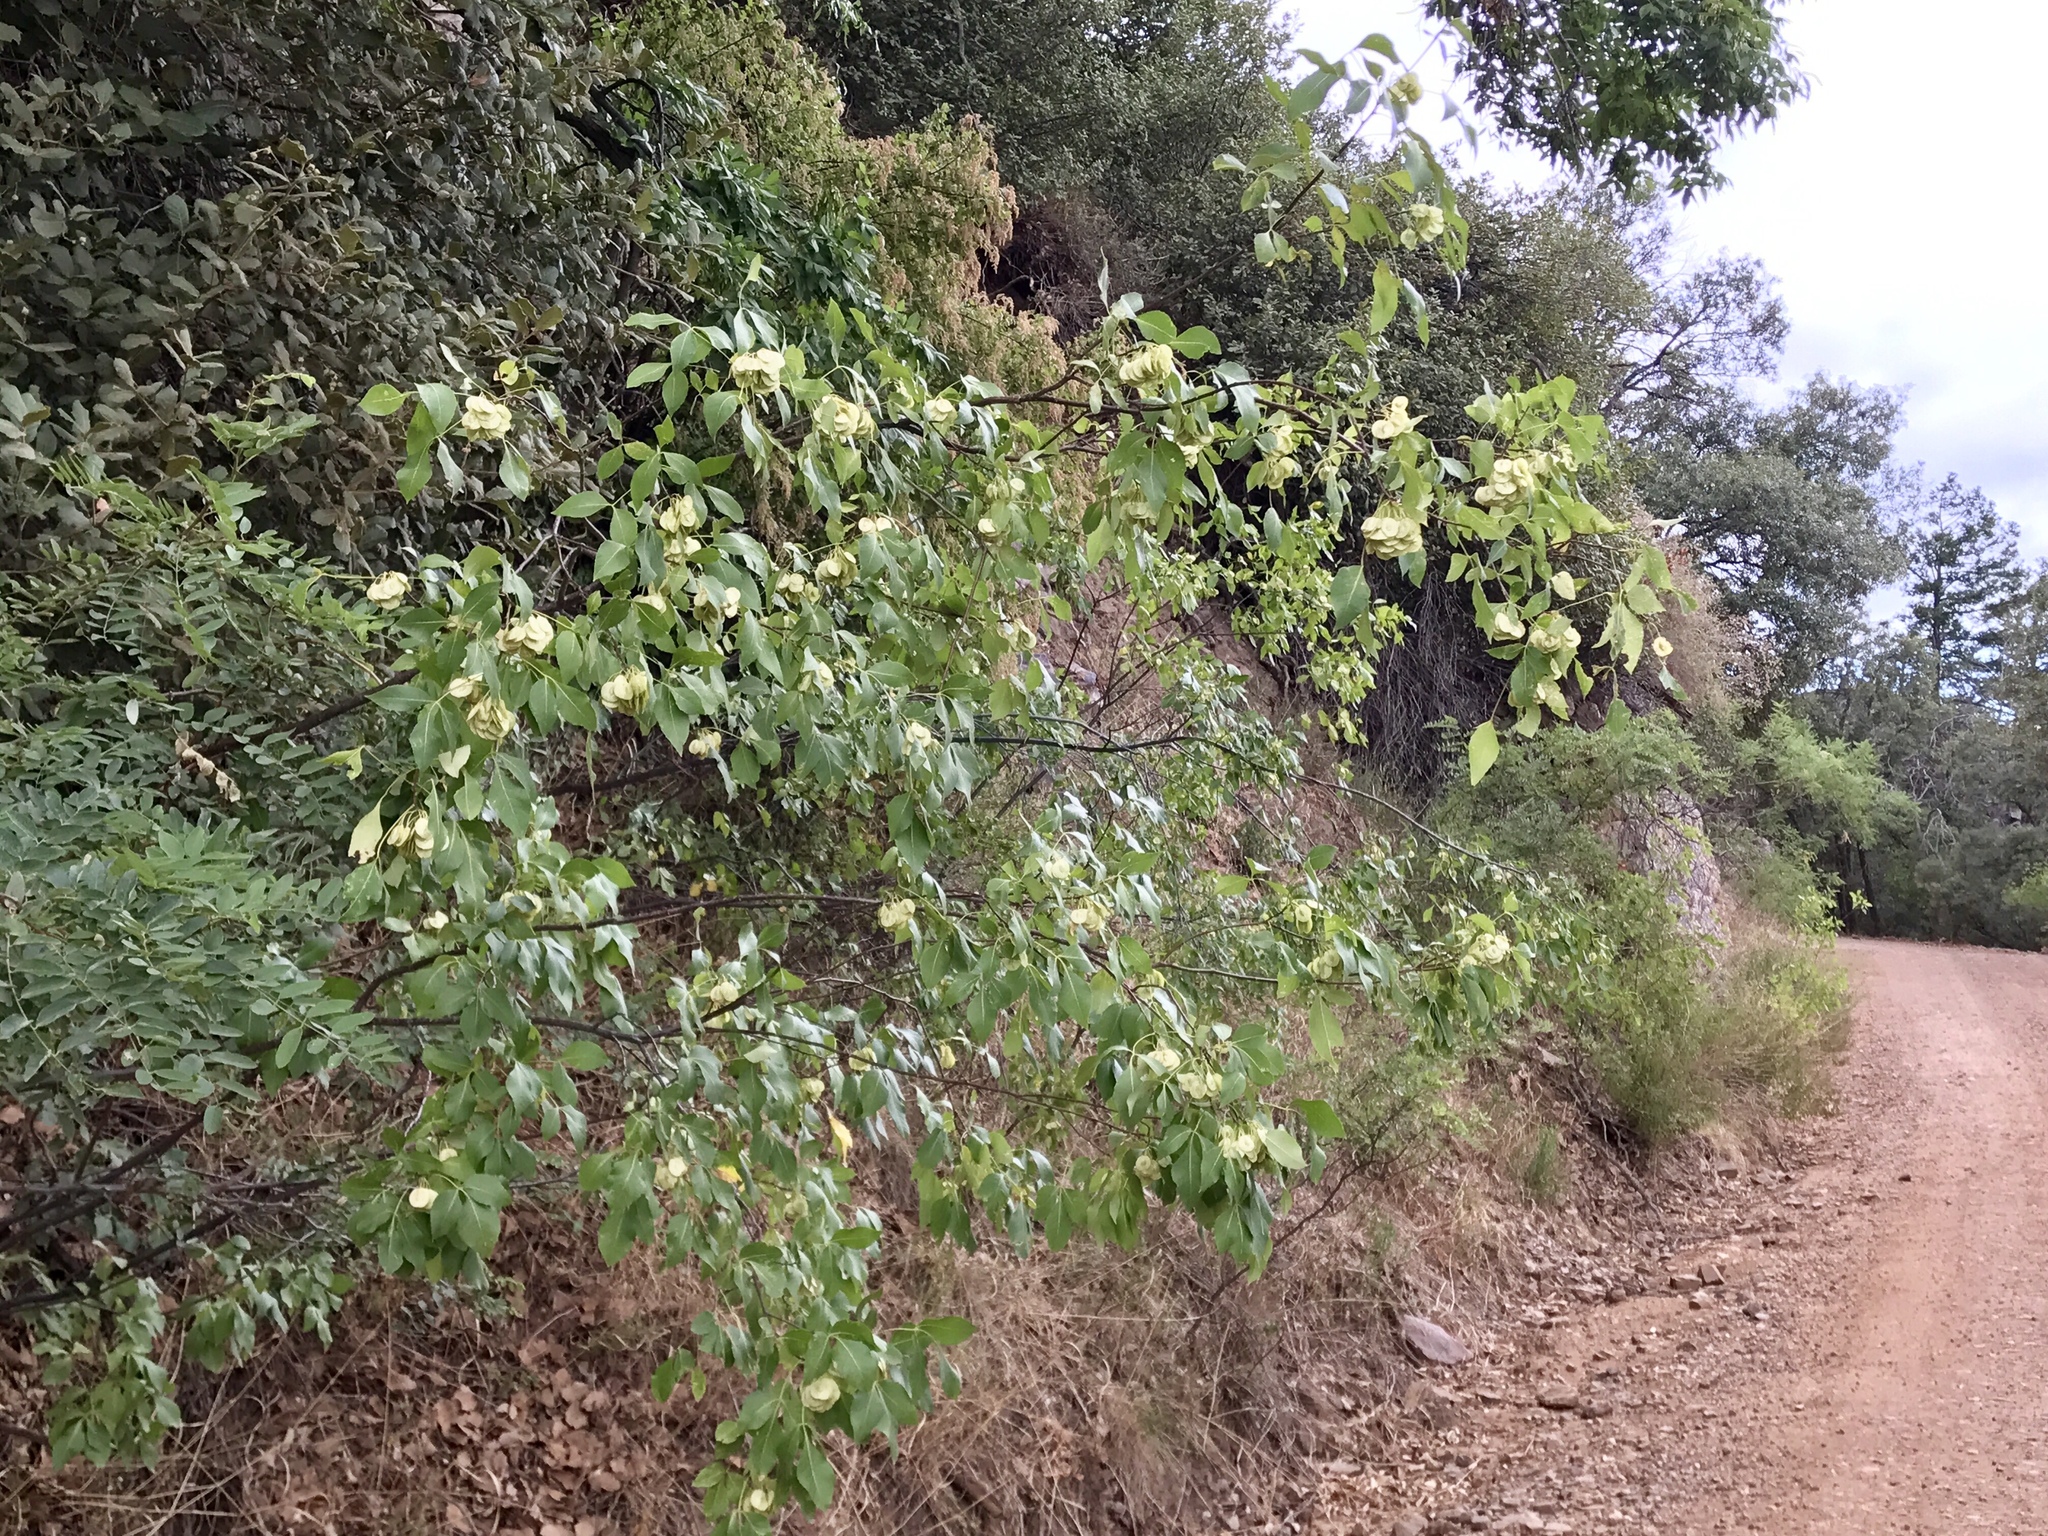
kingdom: Plantae
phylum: Tracheophyta
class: Magnoliopsida
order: Sapindales
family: Rutaceae
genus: Ptelea
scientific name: Ptelea trifoliata
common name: Common hop-tree
